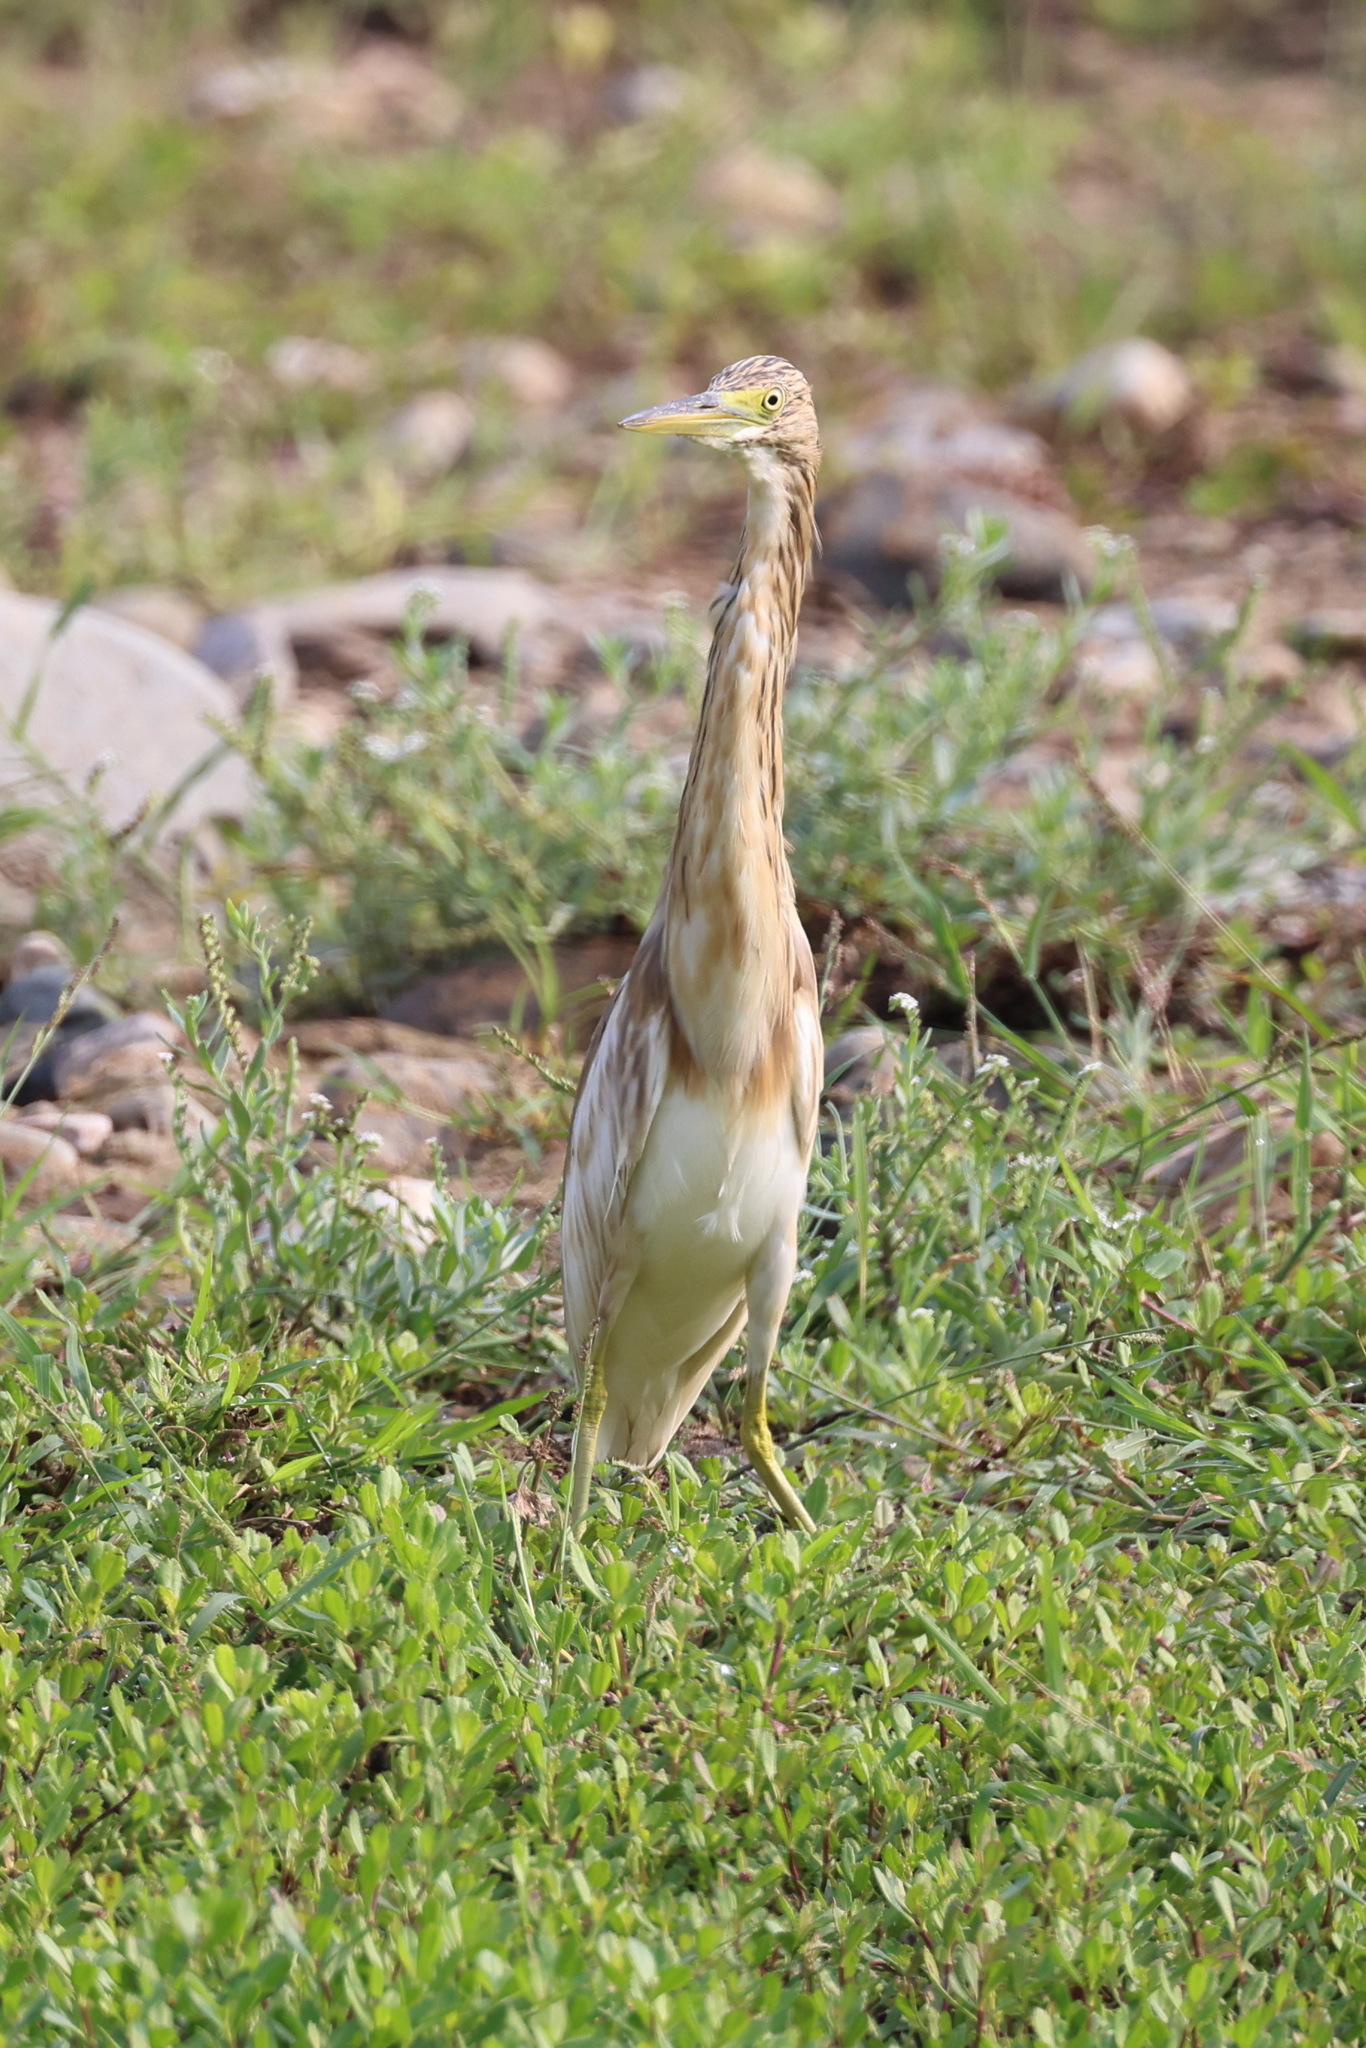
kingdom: Animalia
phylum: Chordata
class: Aves
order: Pelecaniformes
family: Ardeidae
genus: Ardeola
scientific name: Ardeola ralloides
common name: Squacco heron
